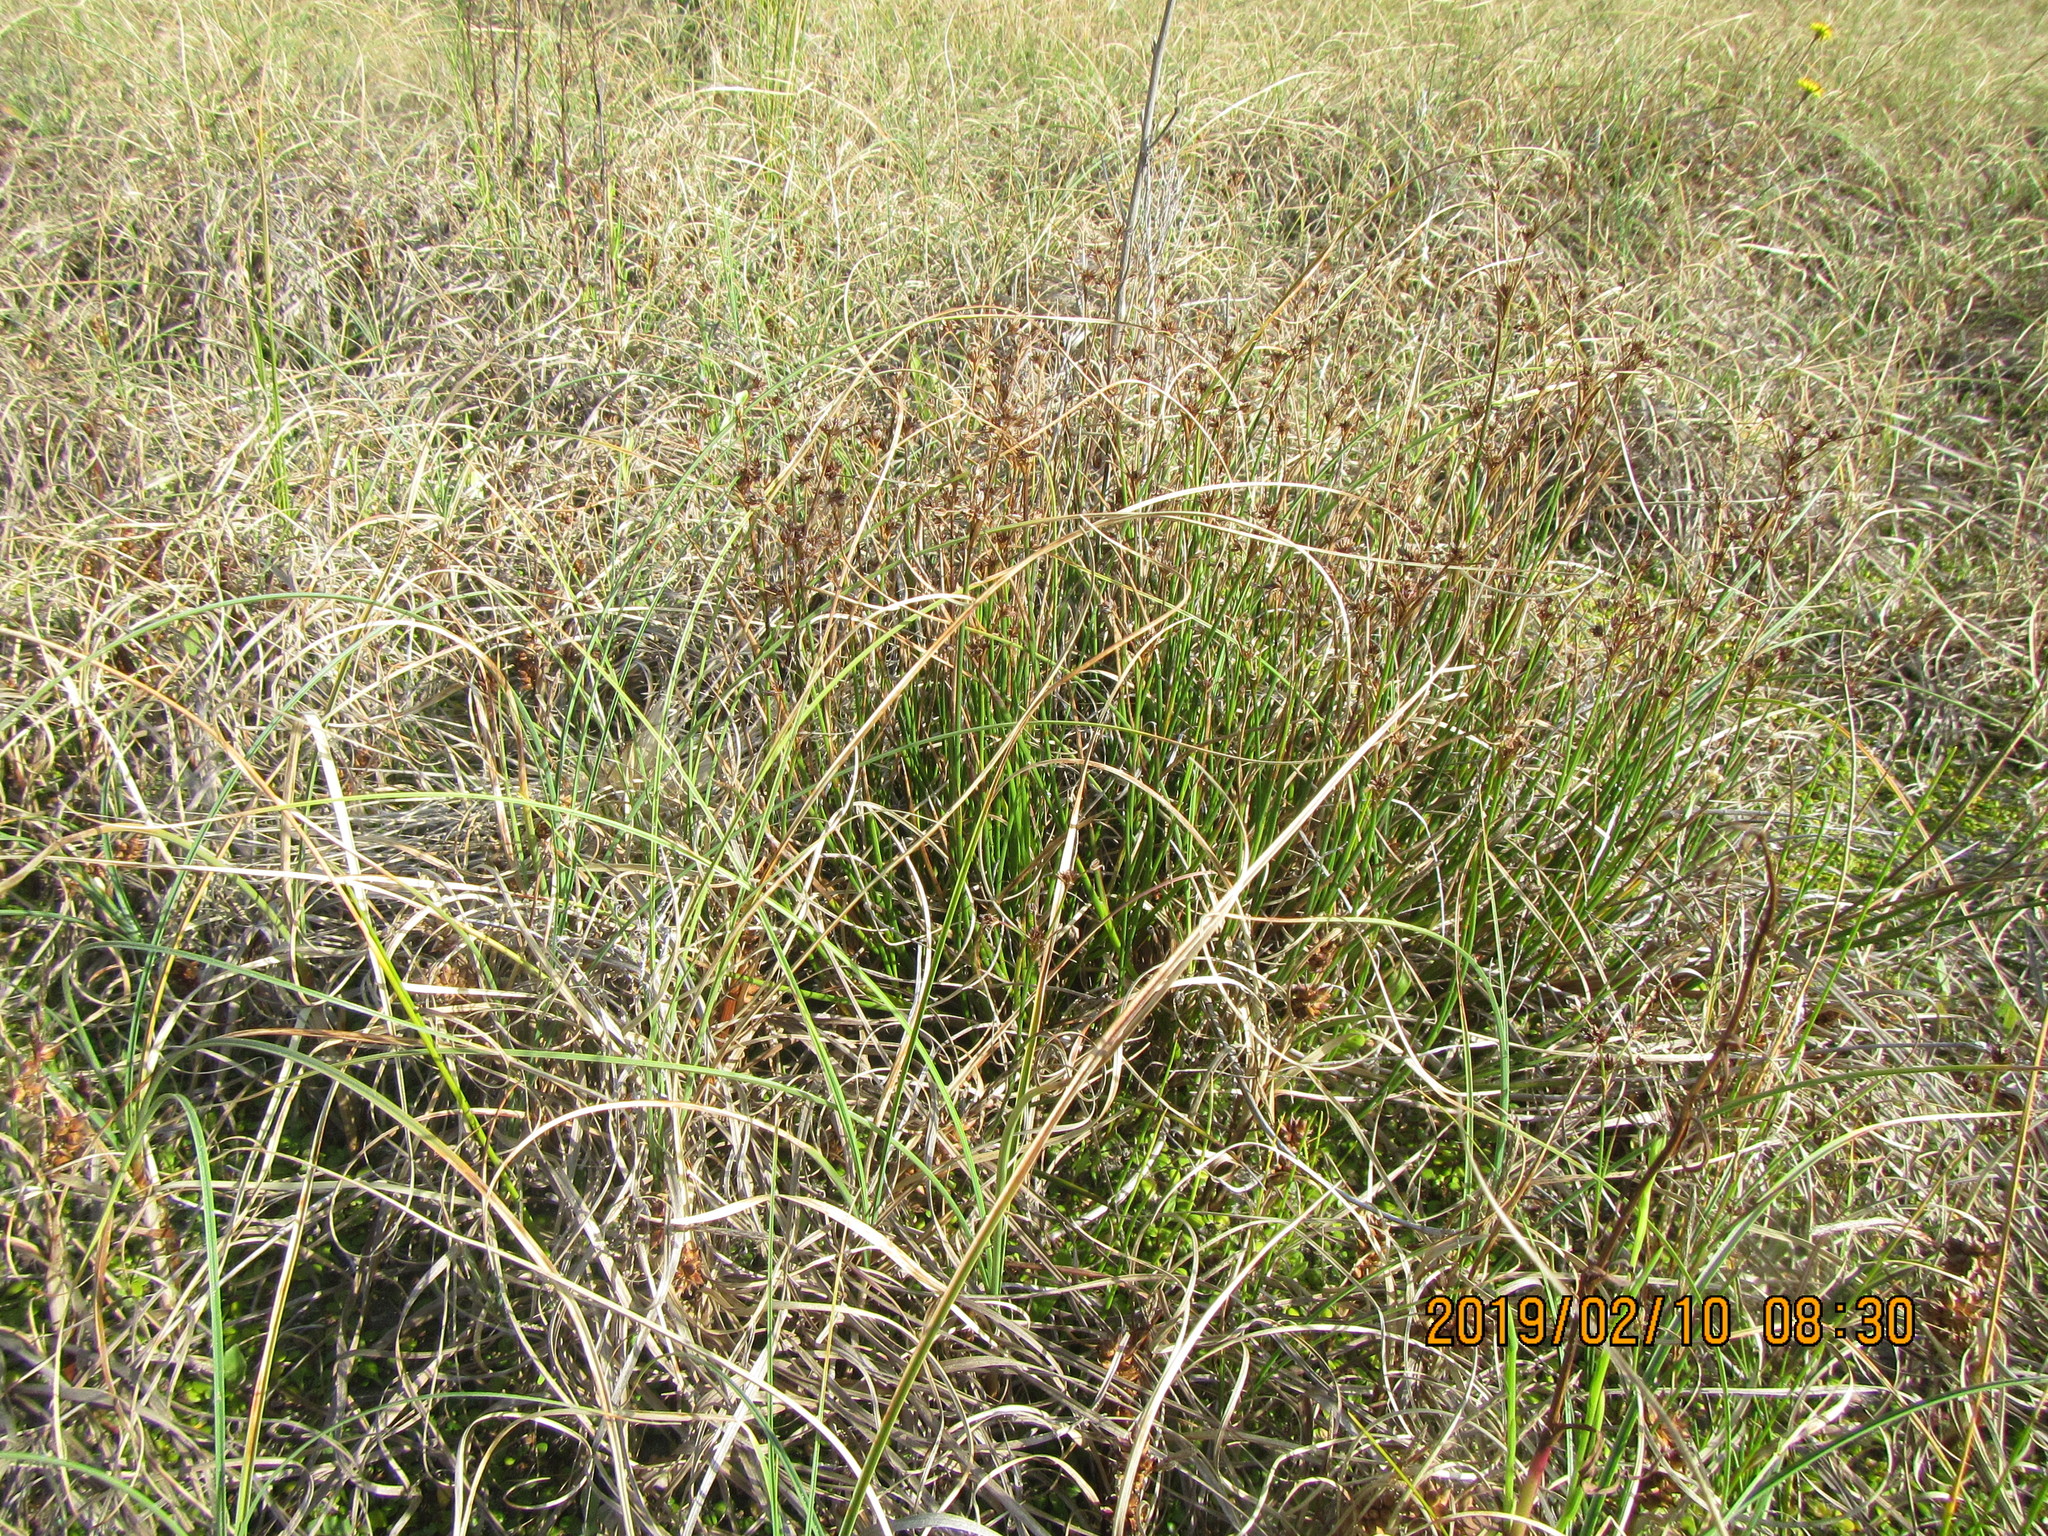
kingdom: Plantae
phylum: Tracheophyta
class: Liliopsida
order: Poales
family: Juncaceae
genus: Juncus
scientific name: Juncus articulatus
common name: Jointed rush
